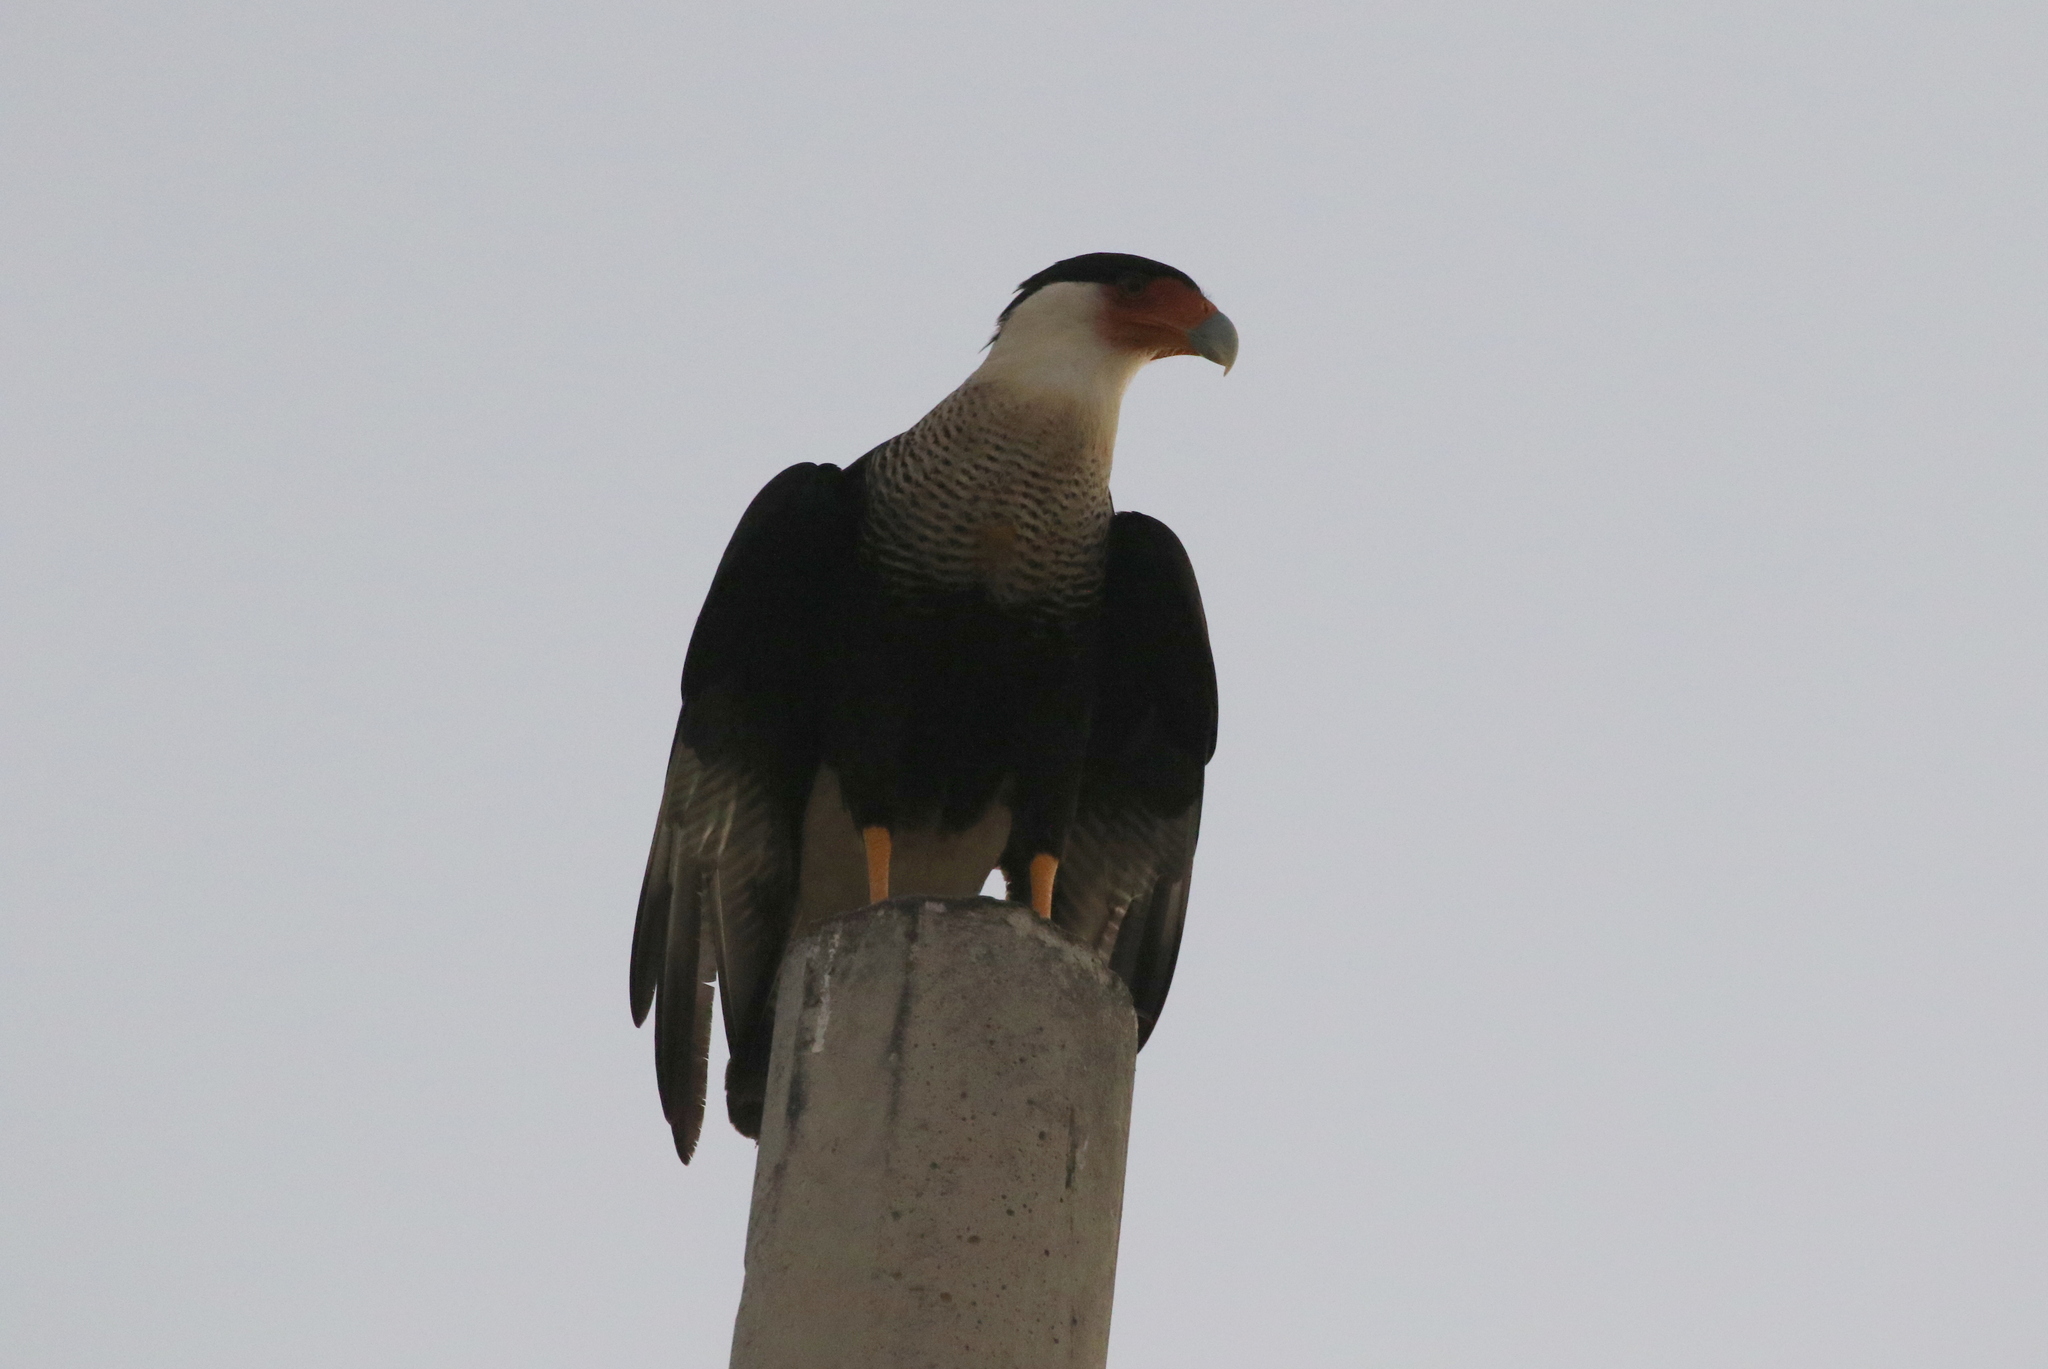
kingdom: Animalia
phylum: Chordata
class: Aves
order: Falconiformes
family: Falconidae
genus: Caracara
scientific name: Caracara plancus
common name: Southern caracara
